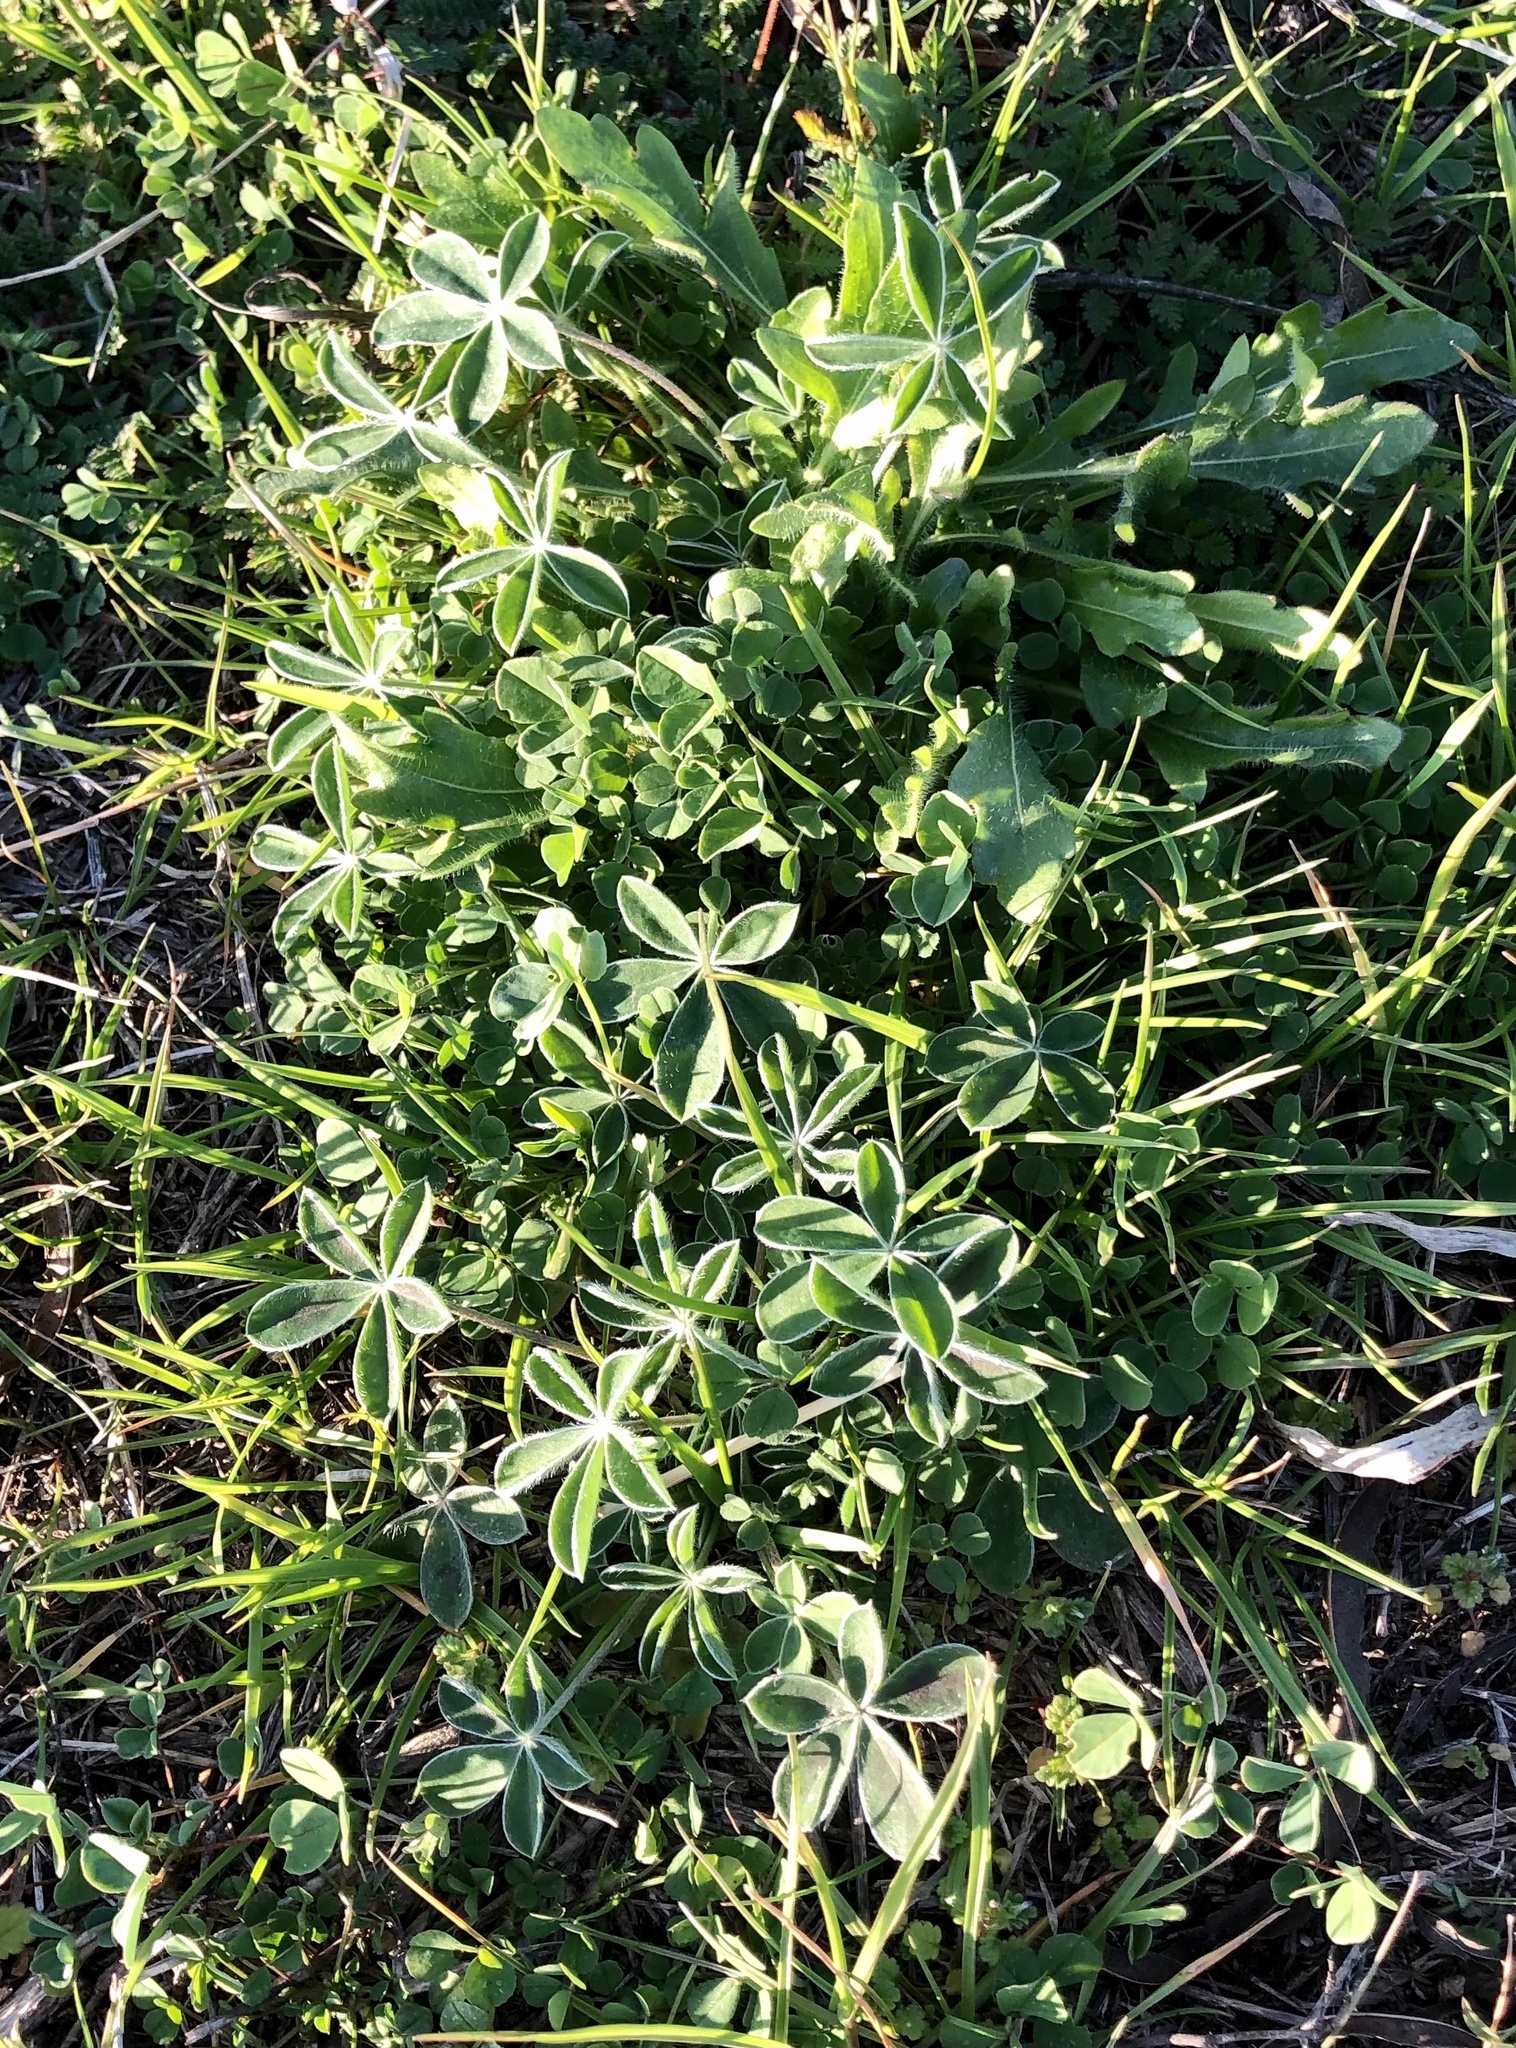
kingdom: Plantae
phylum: Tracheophyta
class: Magnoliopsida
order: Fabales
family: Fabaceae
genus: Lupinus
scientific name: Lupinus texensis
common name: Texas bluebonnet
